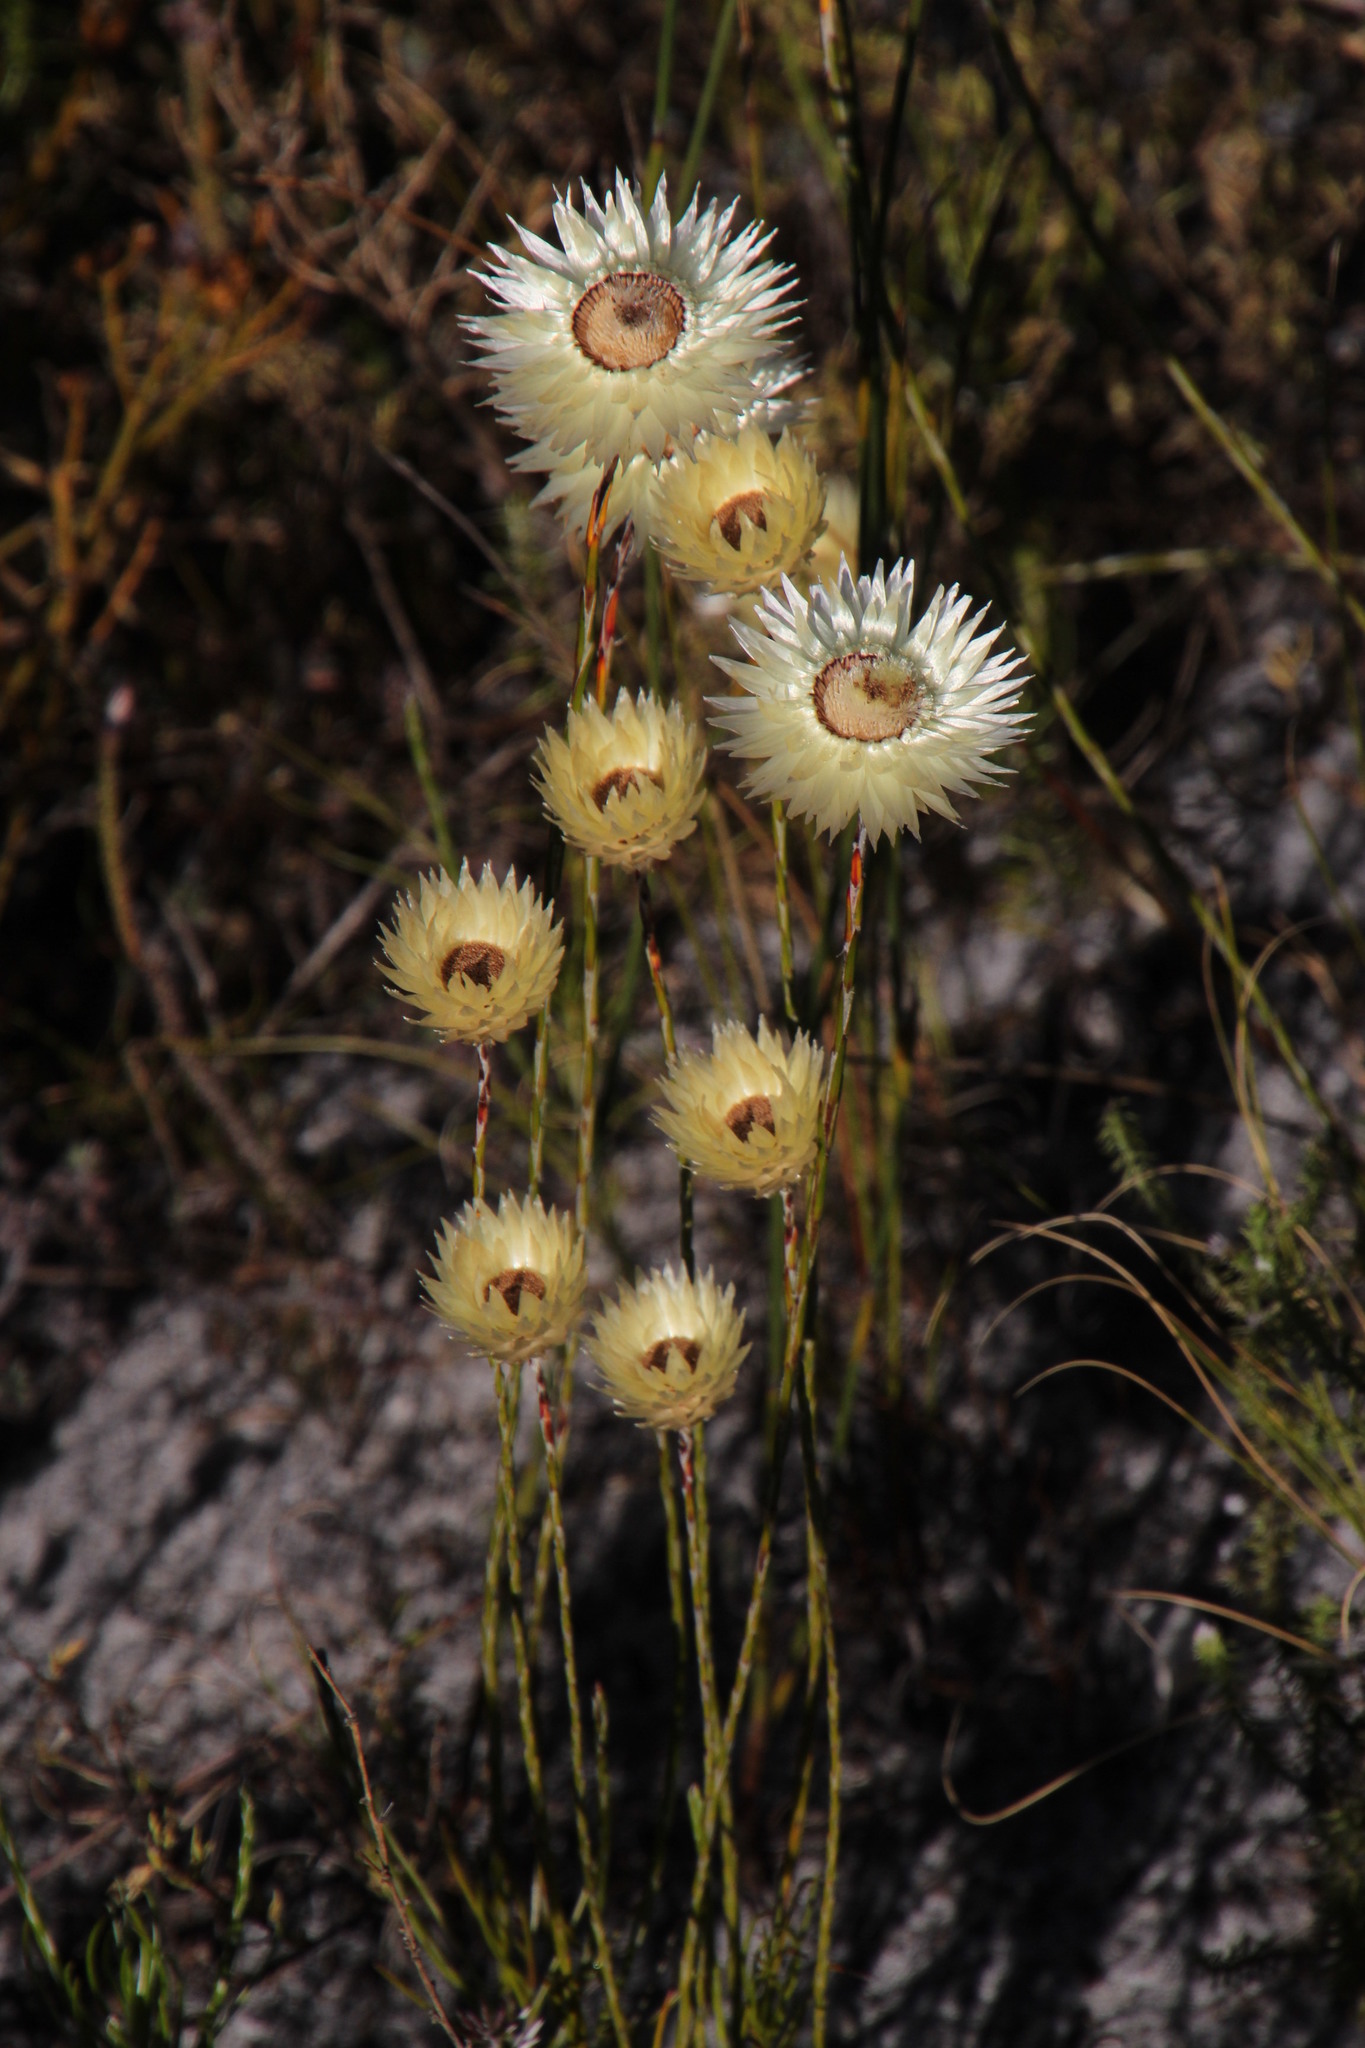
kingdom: Plantae
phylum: Tracheophyta
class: Magnoliopsida
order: Asterales
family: Asteraceae
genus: Edmondia
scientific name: Edmondia sesamoides
